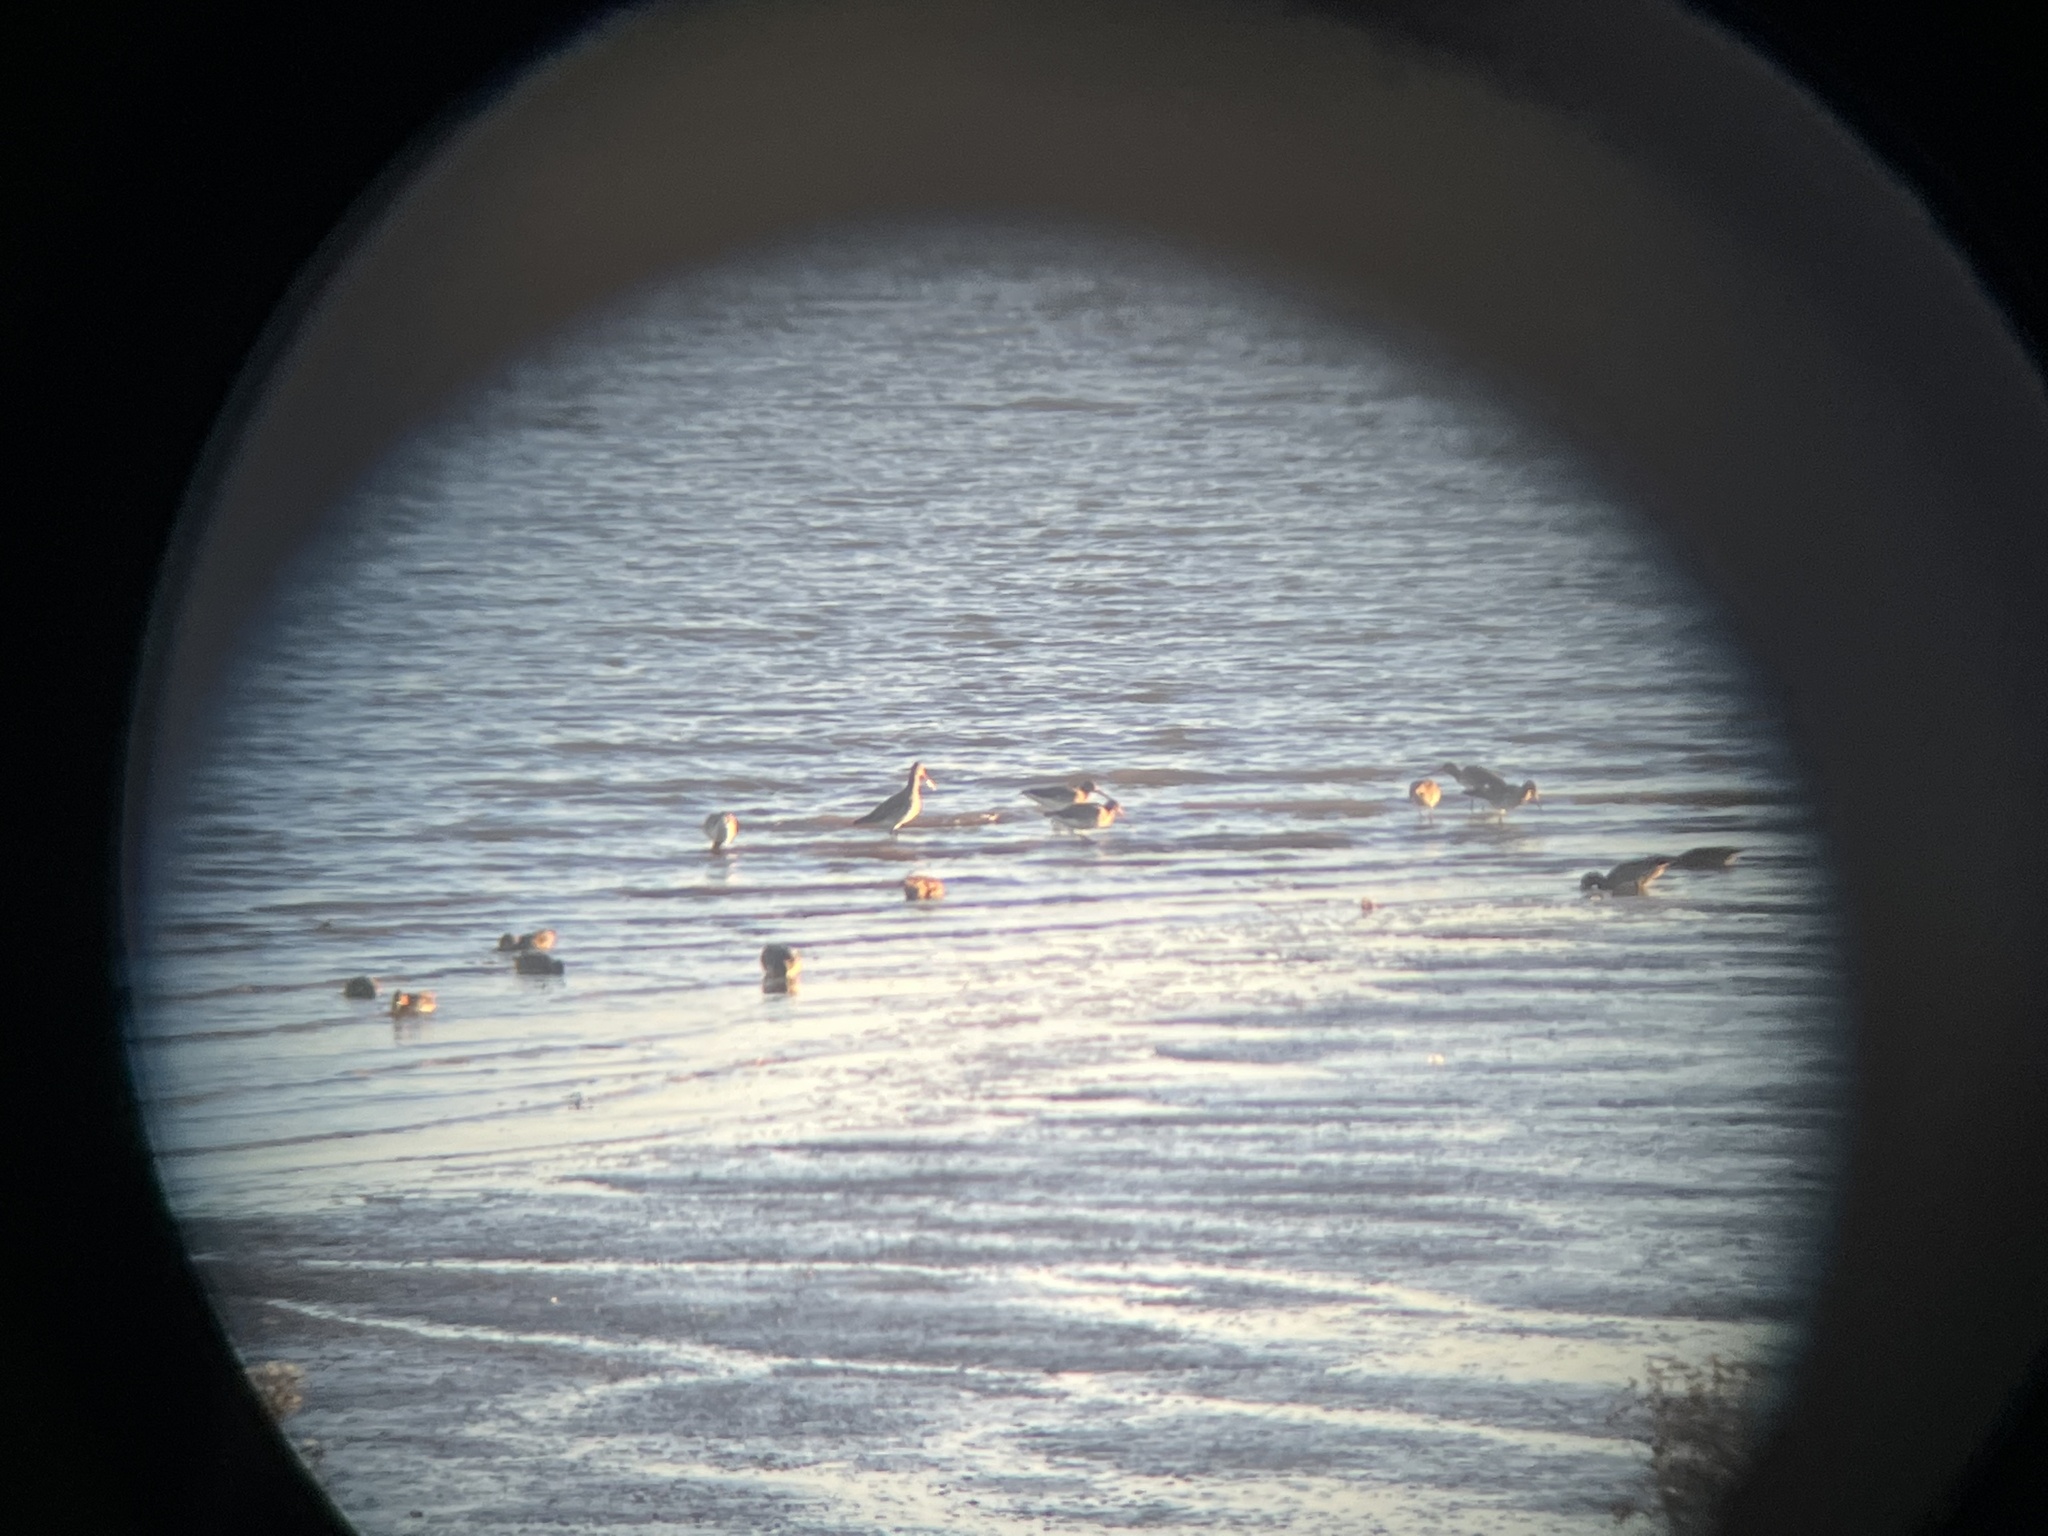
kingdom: Animalia
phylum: Chordata
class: Aves
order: Charadriiformes
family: Scolopacidae
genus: Limosa
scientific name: Limosa lapponica
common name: Bar-tailed godwit
